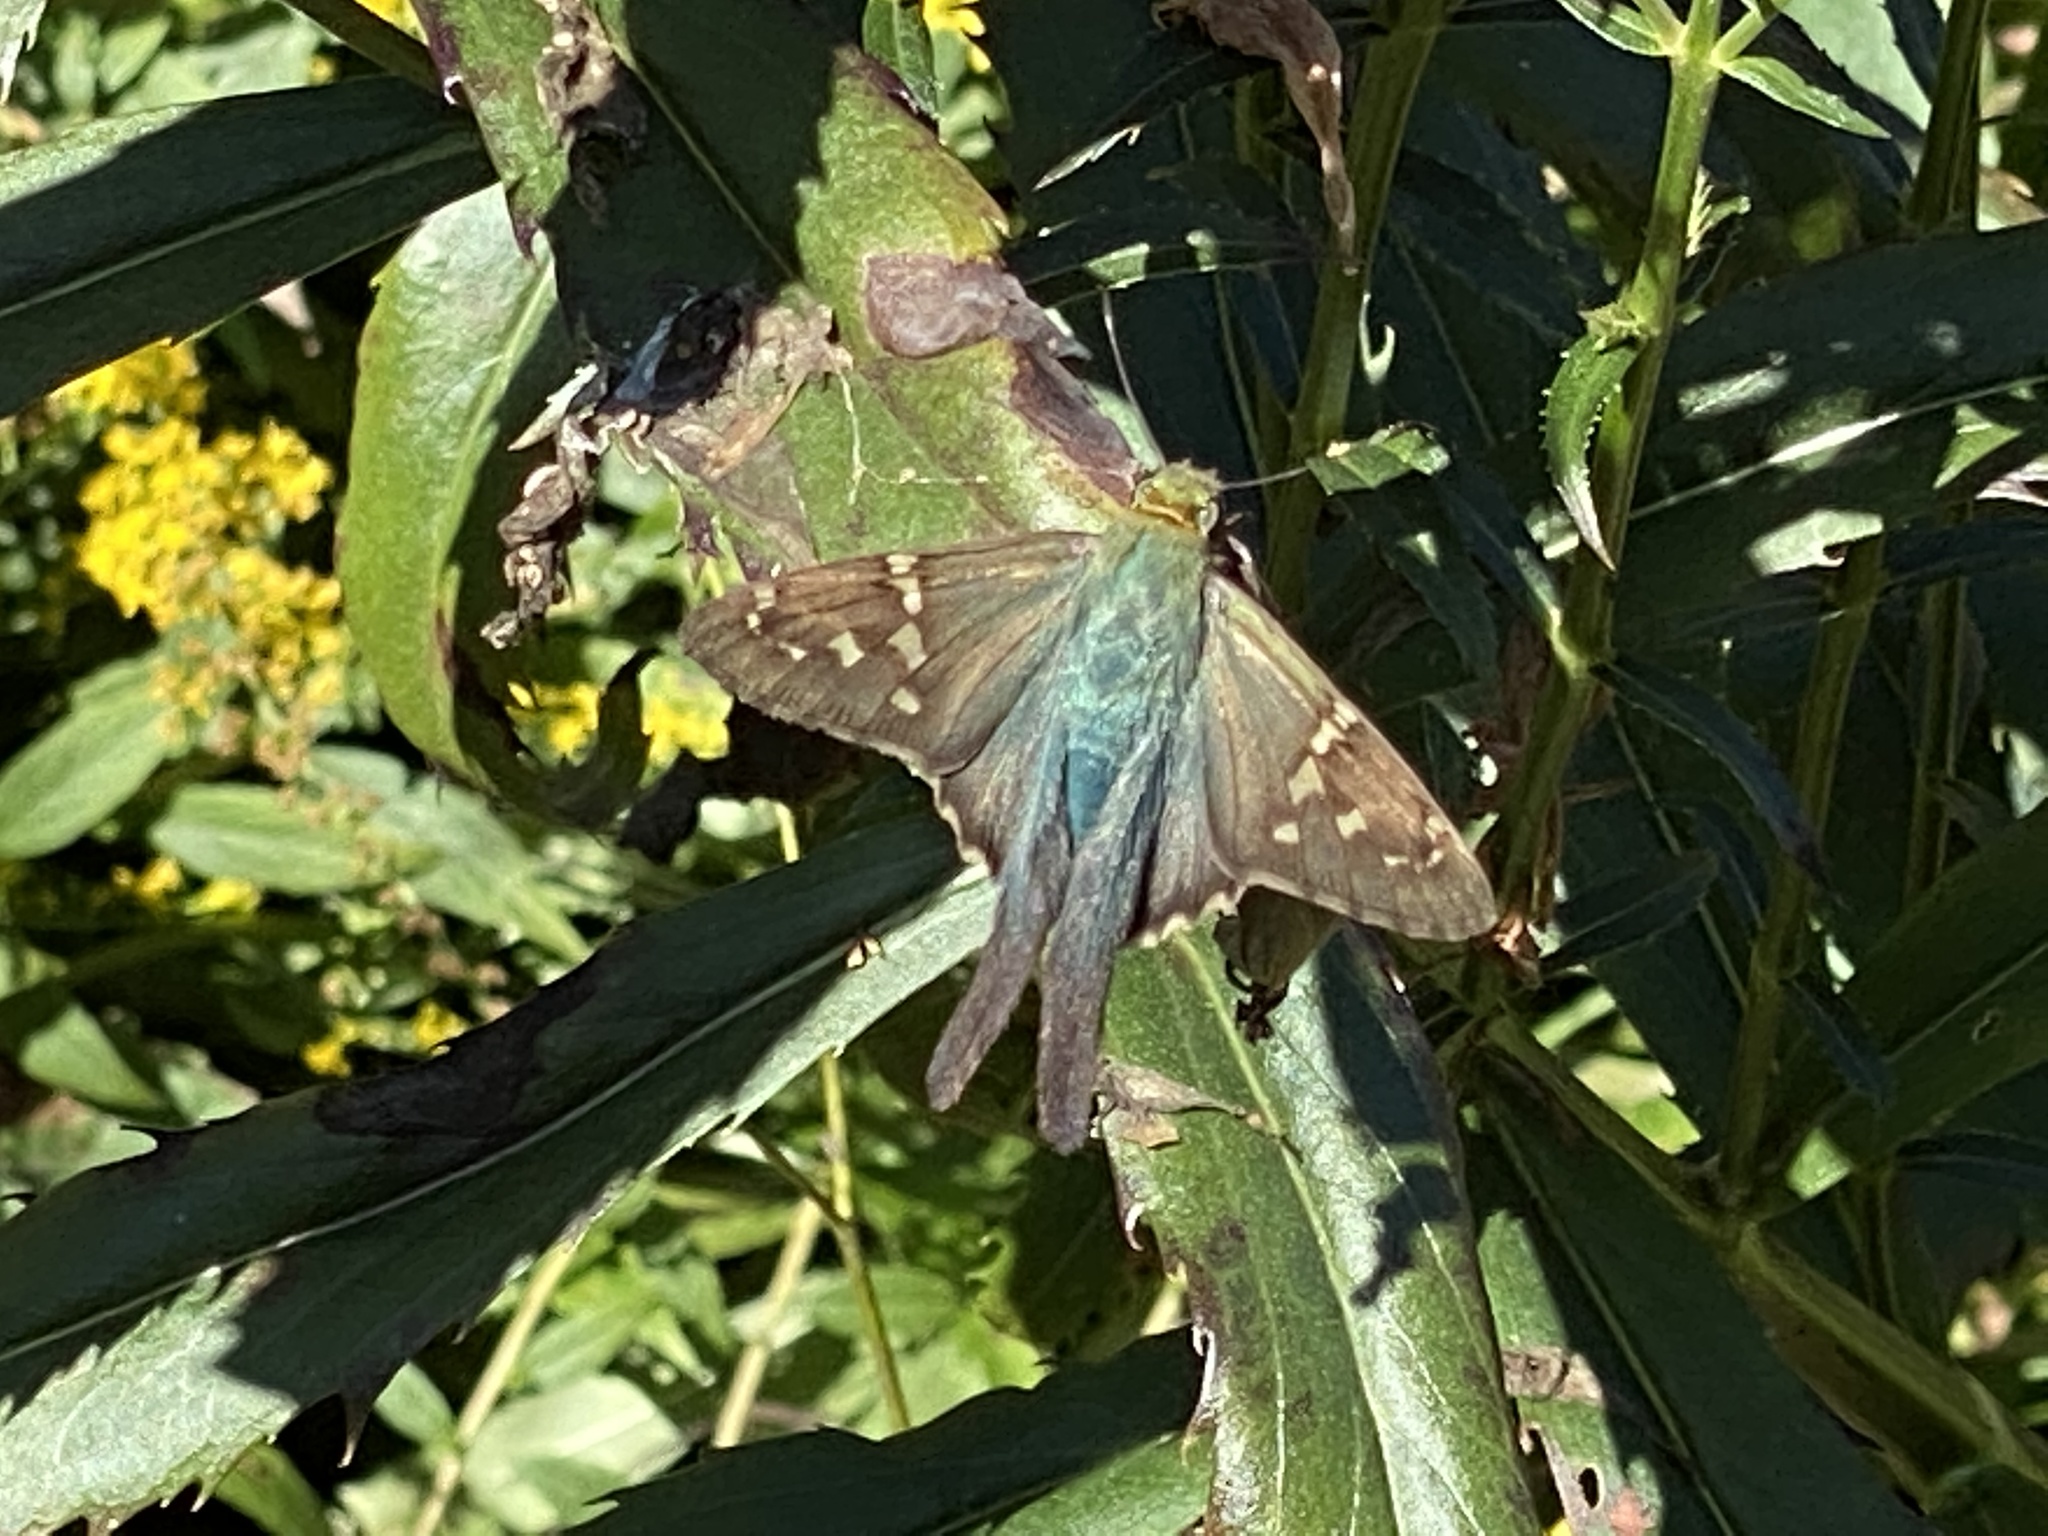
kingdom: Animalia
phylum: Arthropoda
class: Insecta
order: Lepidoptera
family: Hesperiidae
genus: Urbanus
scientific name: Urbanus proteus
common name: Long-tailed skipper
